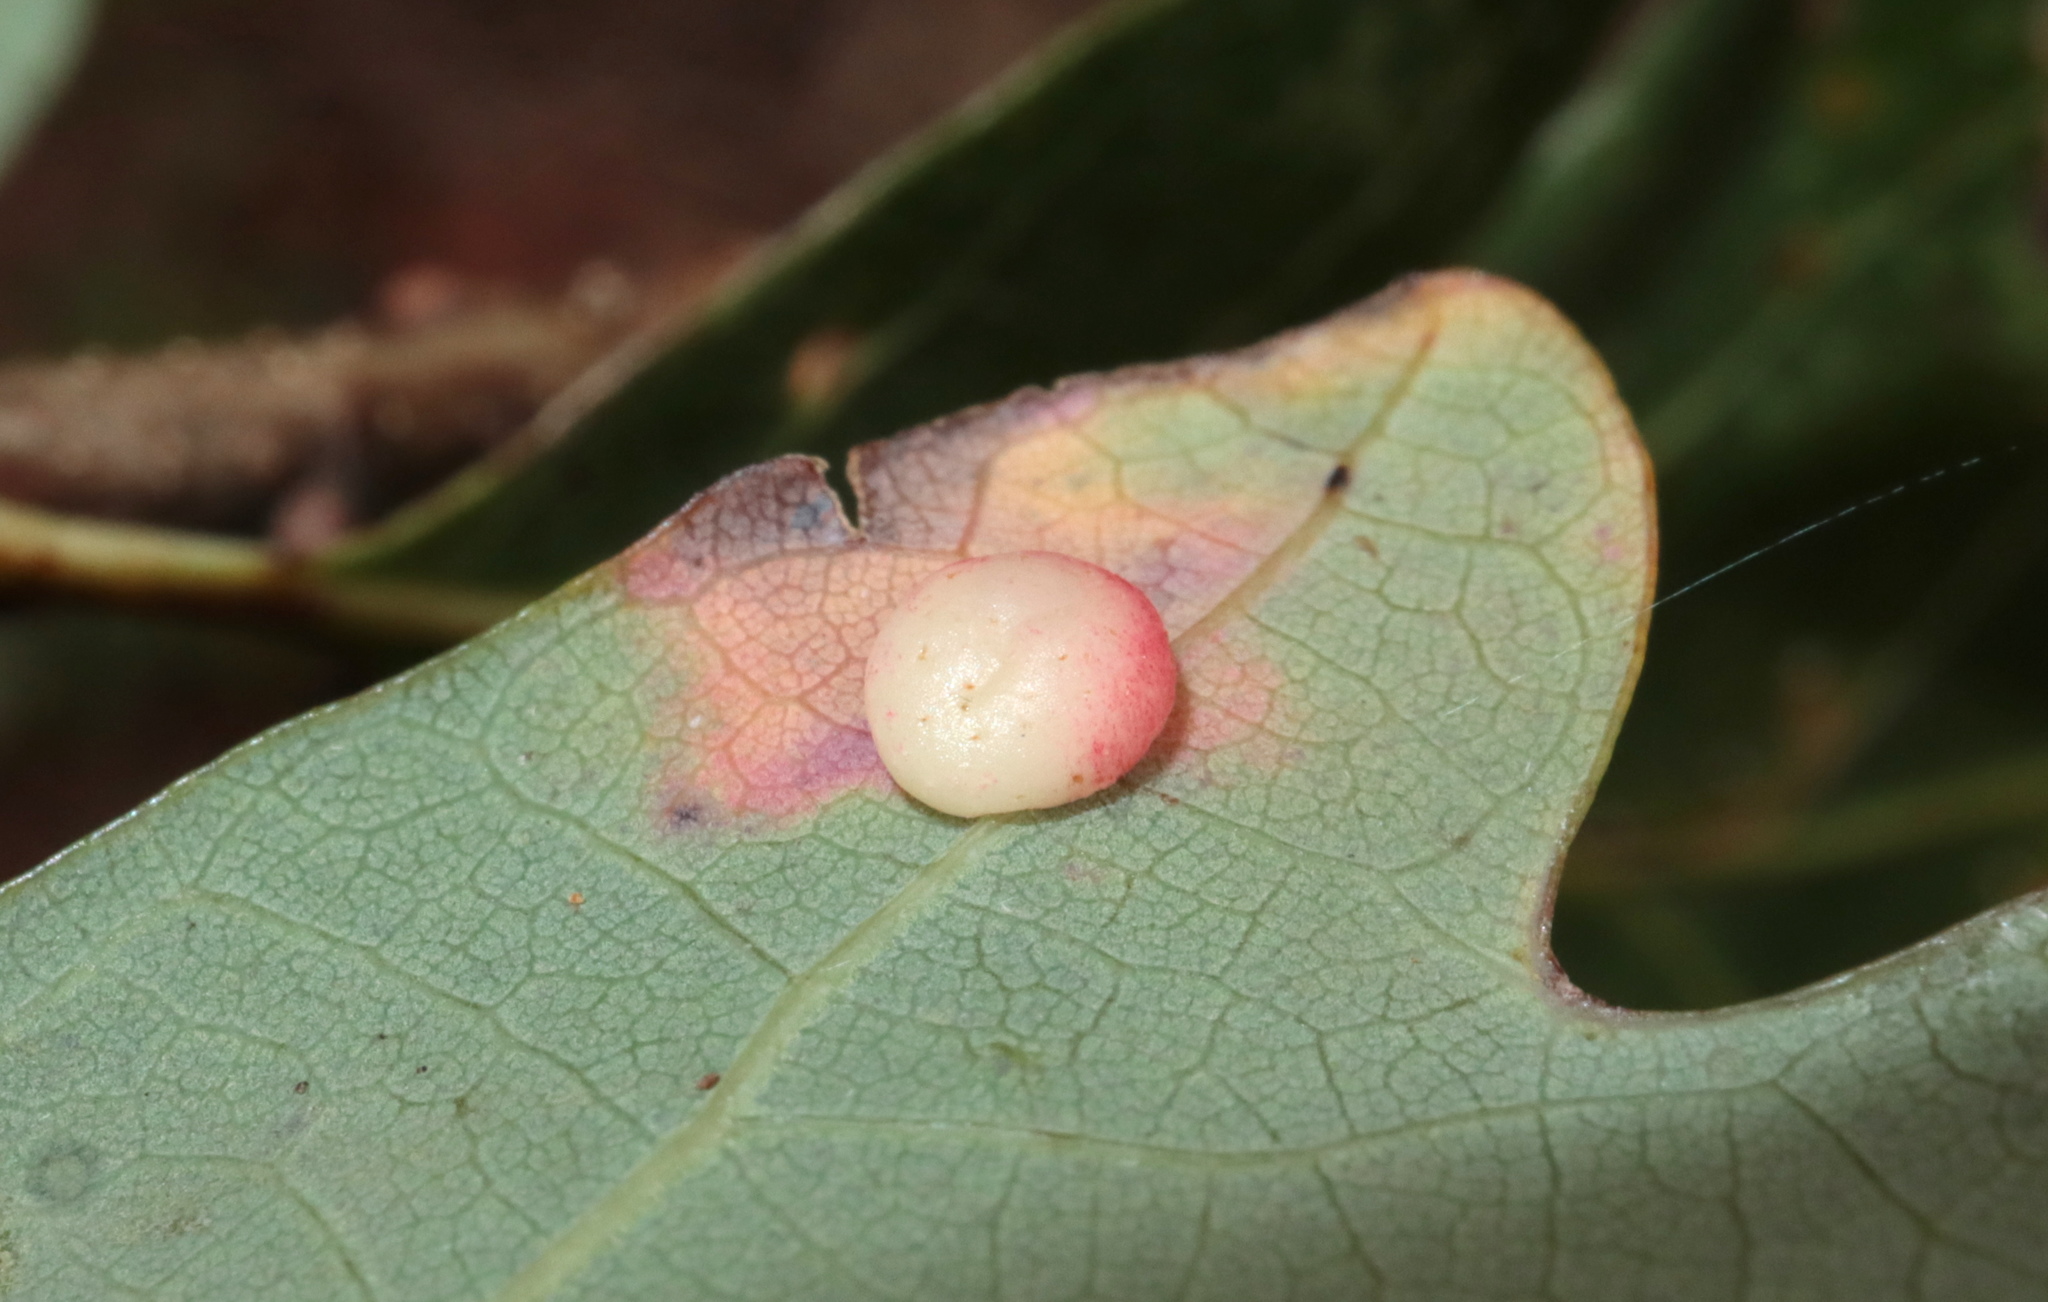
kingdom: Animalia
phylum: Arthropoda
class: Insecta
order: Hymenoptera
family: Cynipidae
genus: Phylloteras
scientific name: Phylloteras
